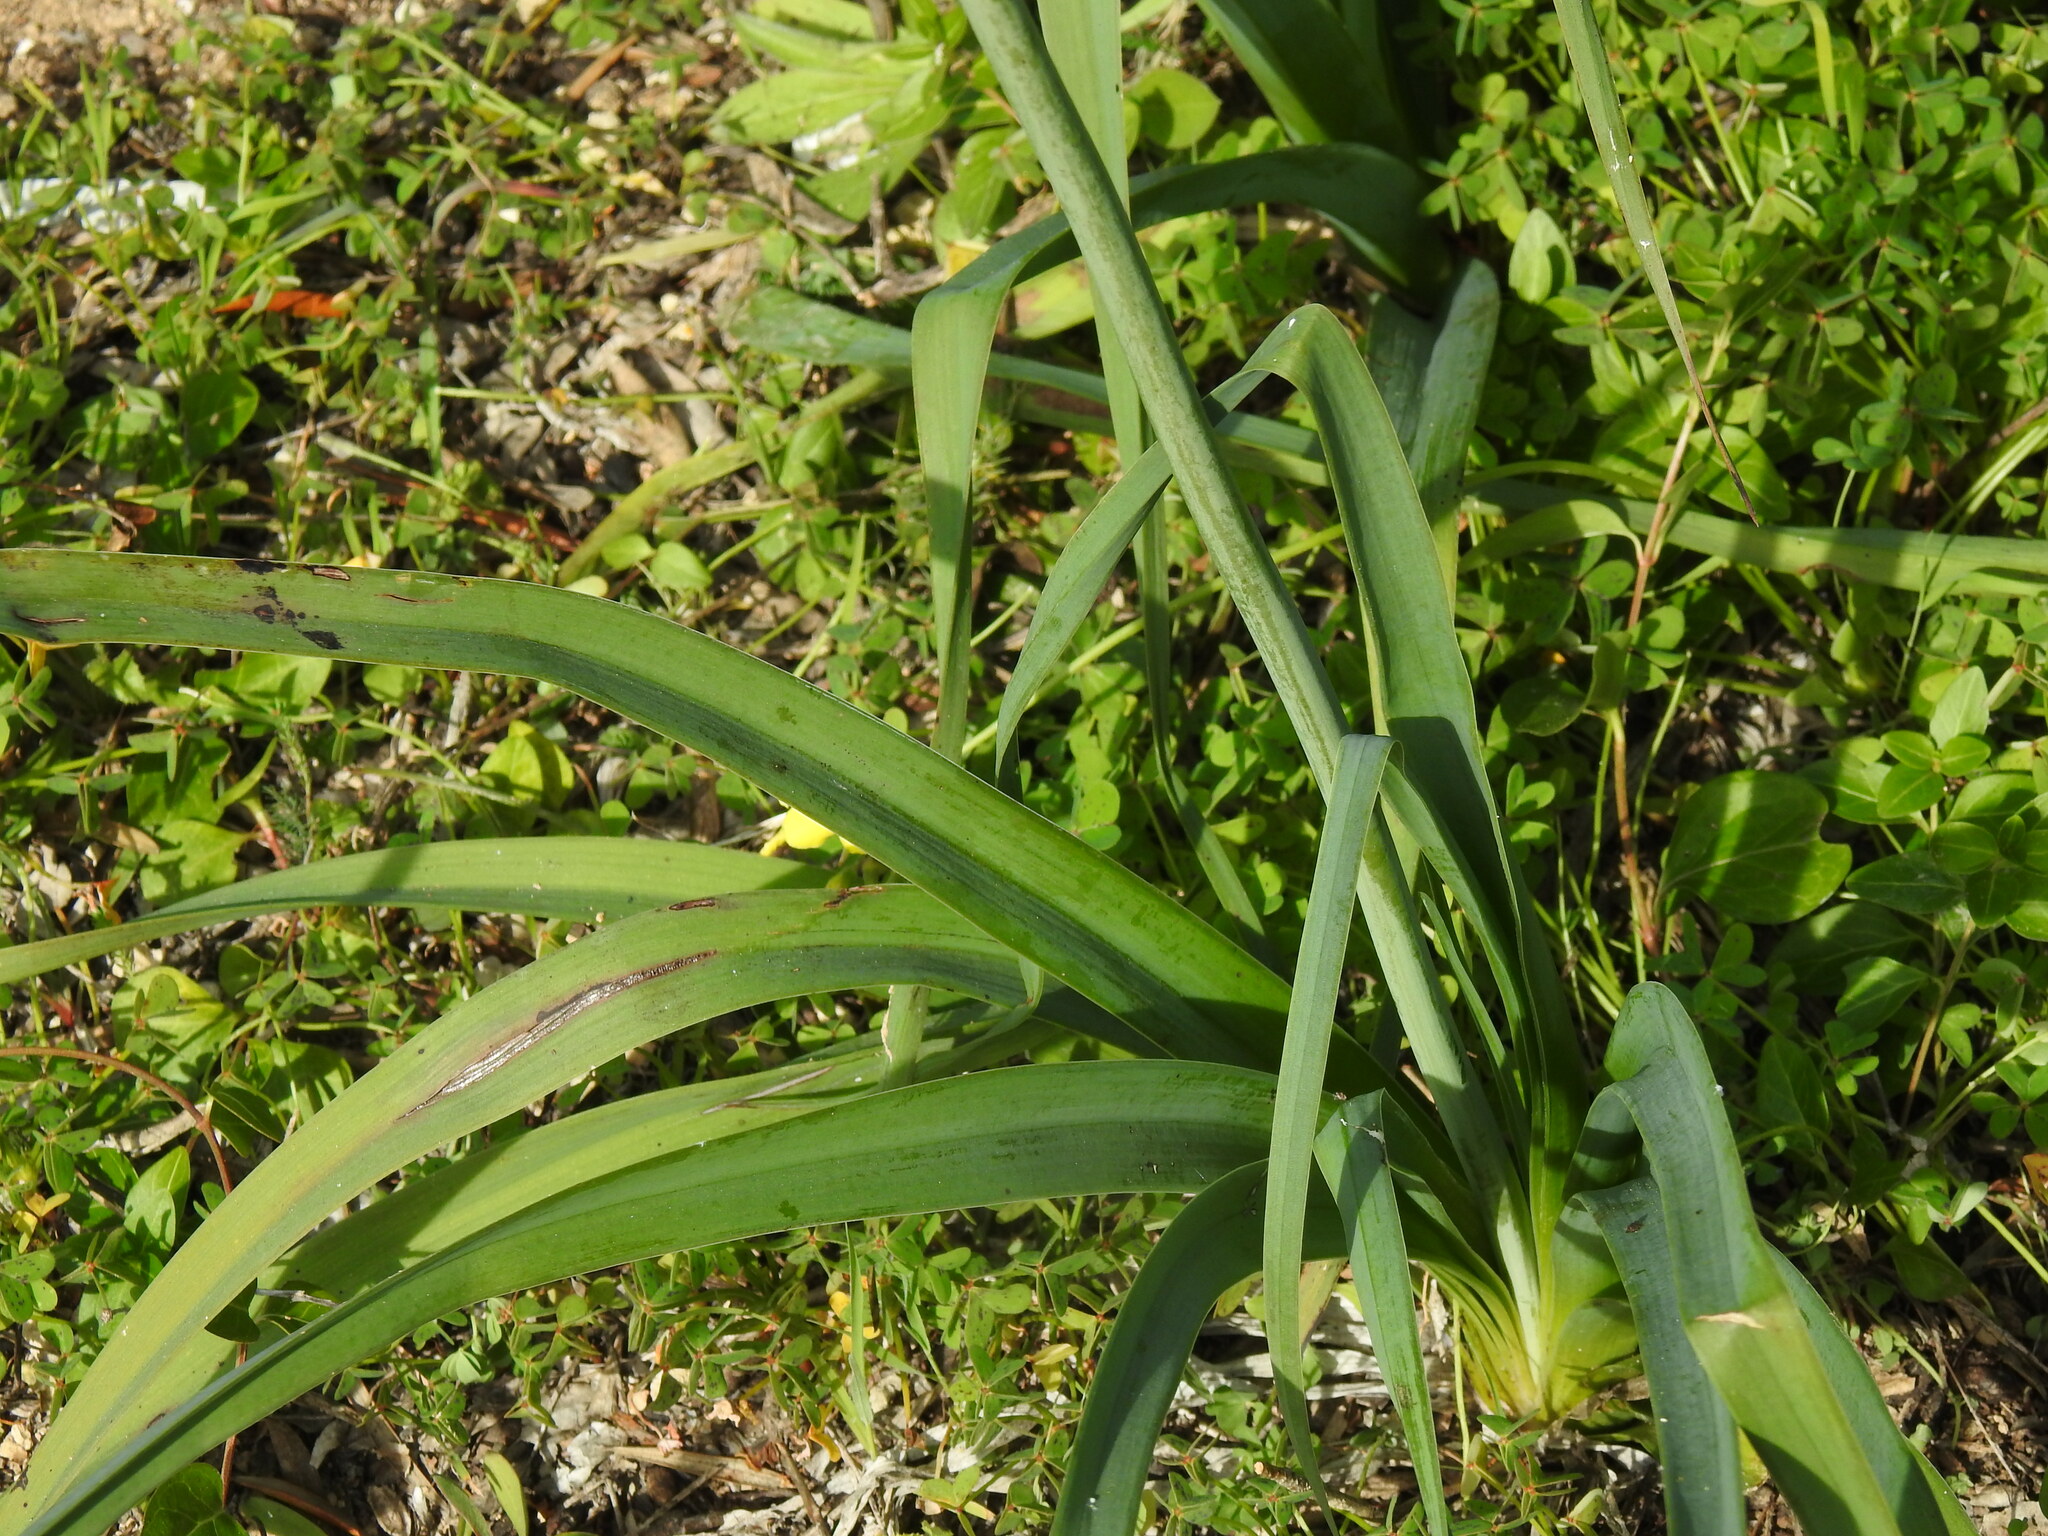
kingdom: Plantae
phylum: Tracheophyta
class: Liliopsida
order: Asparagales
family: Asphodelaceae
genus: Asphodelus
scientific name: Asphodelus ramosus
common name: Silverrod
